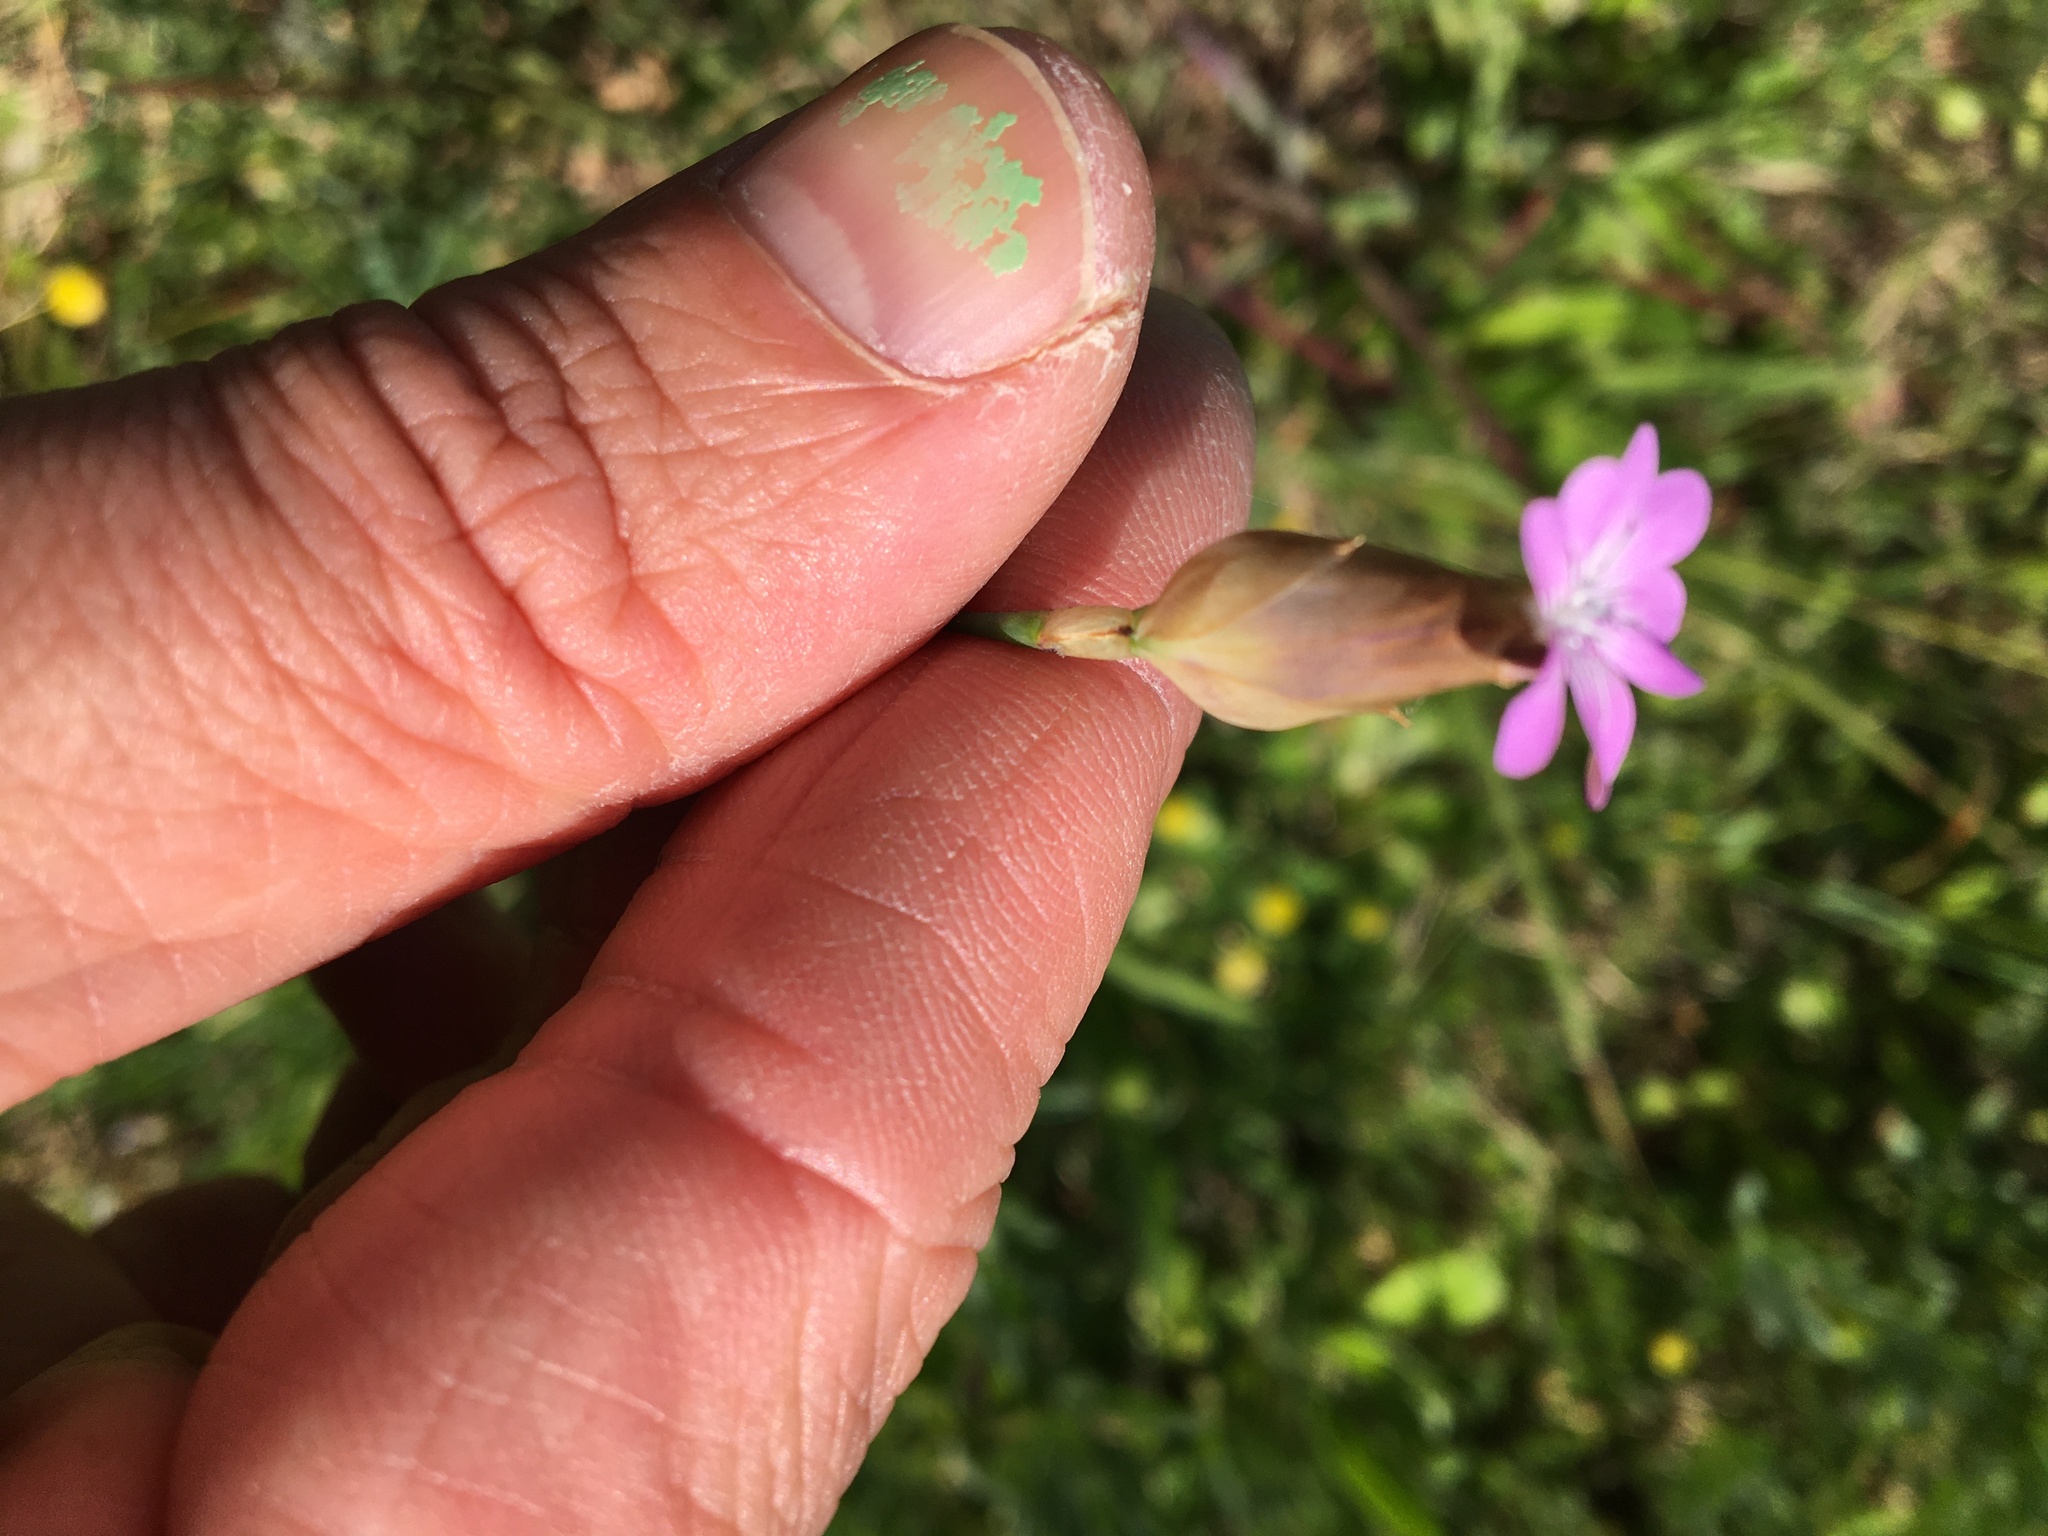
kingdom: Plantae
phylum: Tracheophyta
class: Magnoliopsida
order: Caryophyllales
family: Caryophyllaceae
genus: Petrorhagia
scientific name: Petrorhagia dubia
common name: Hairypink
